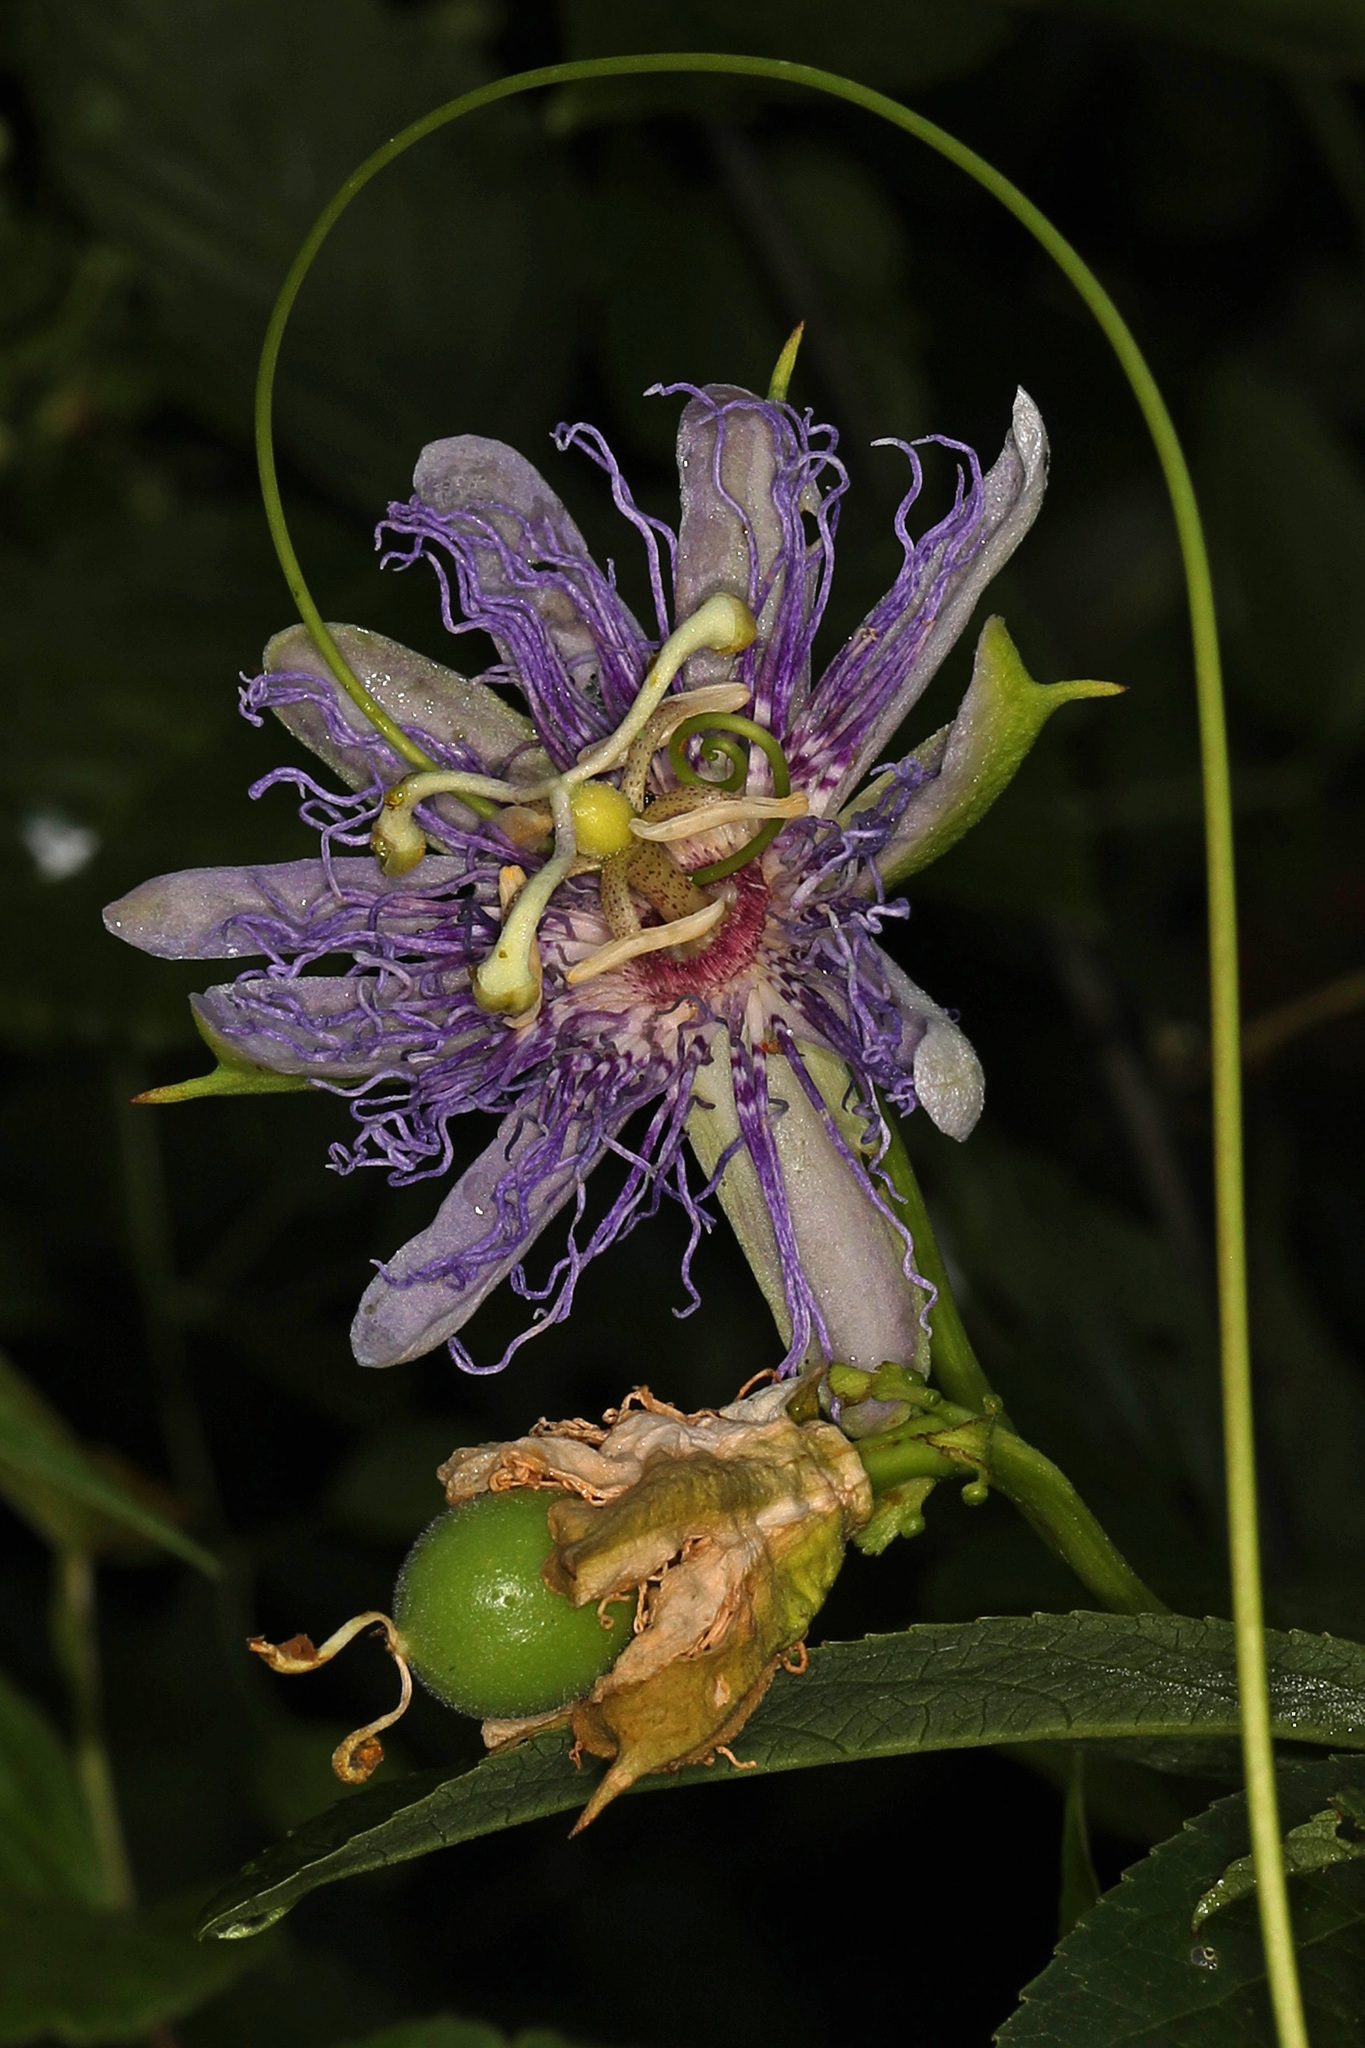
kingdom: Plantae
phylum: Tracheophyta
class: Magnoliopsida
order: Malpighiales
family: Passifloraceae
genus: Passiflora
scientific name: Passiflora incarnata
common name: Apricot-vine
